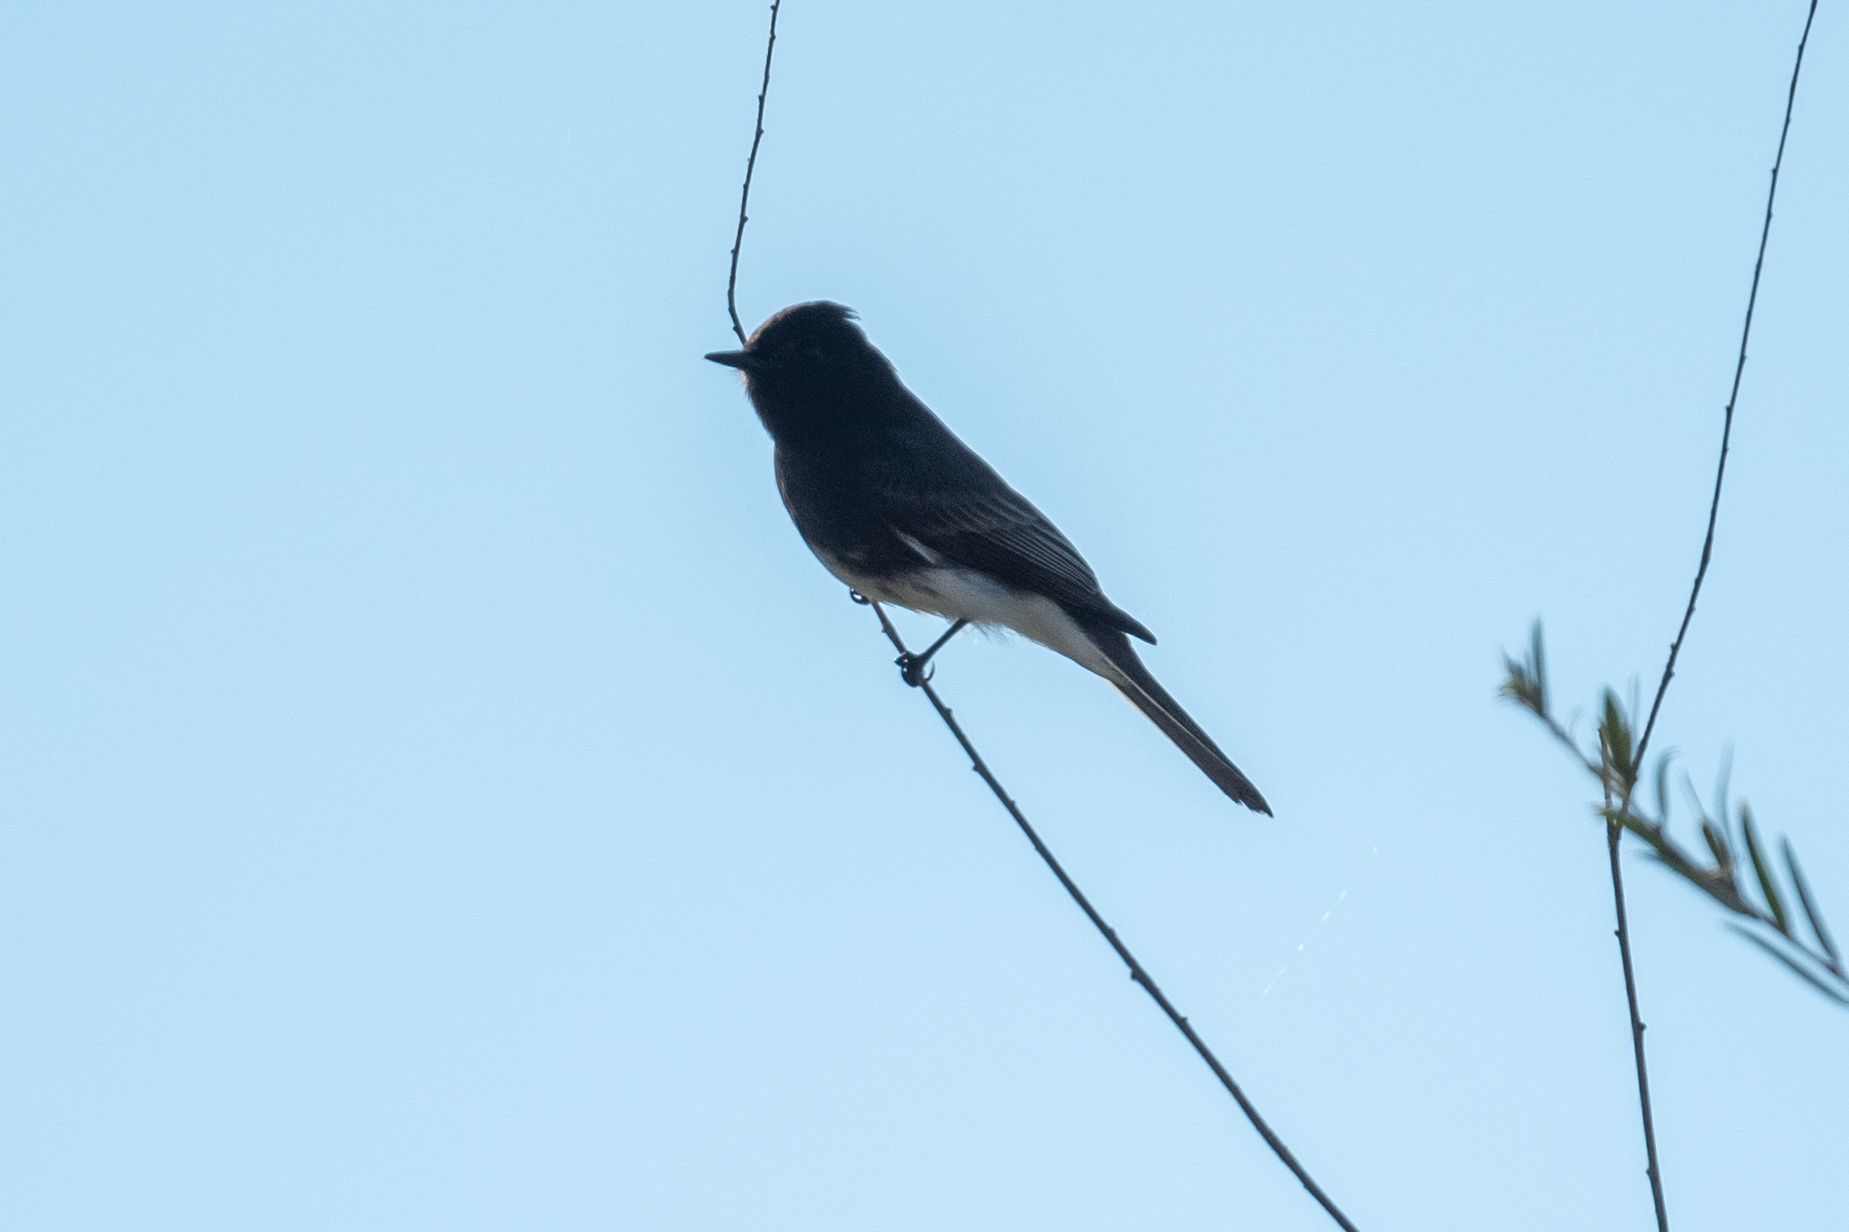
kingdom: Animalia
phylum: Chordata
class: Aves
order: Passeriformes
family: Tyrannidae
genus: Sayornis
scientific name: Sayornis nigricans
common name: Black phoebe
